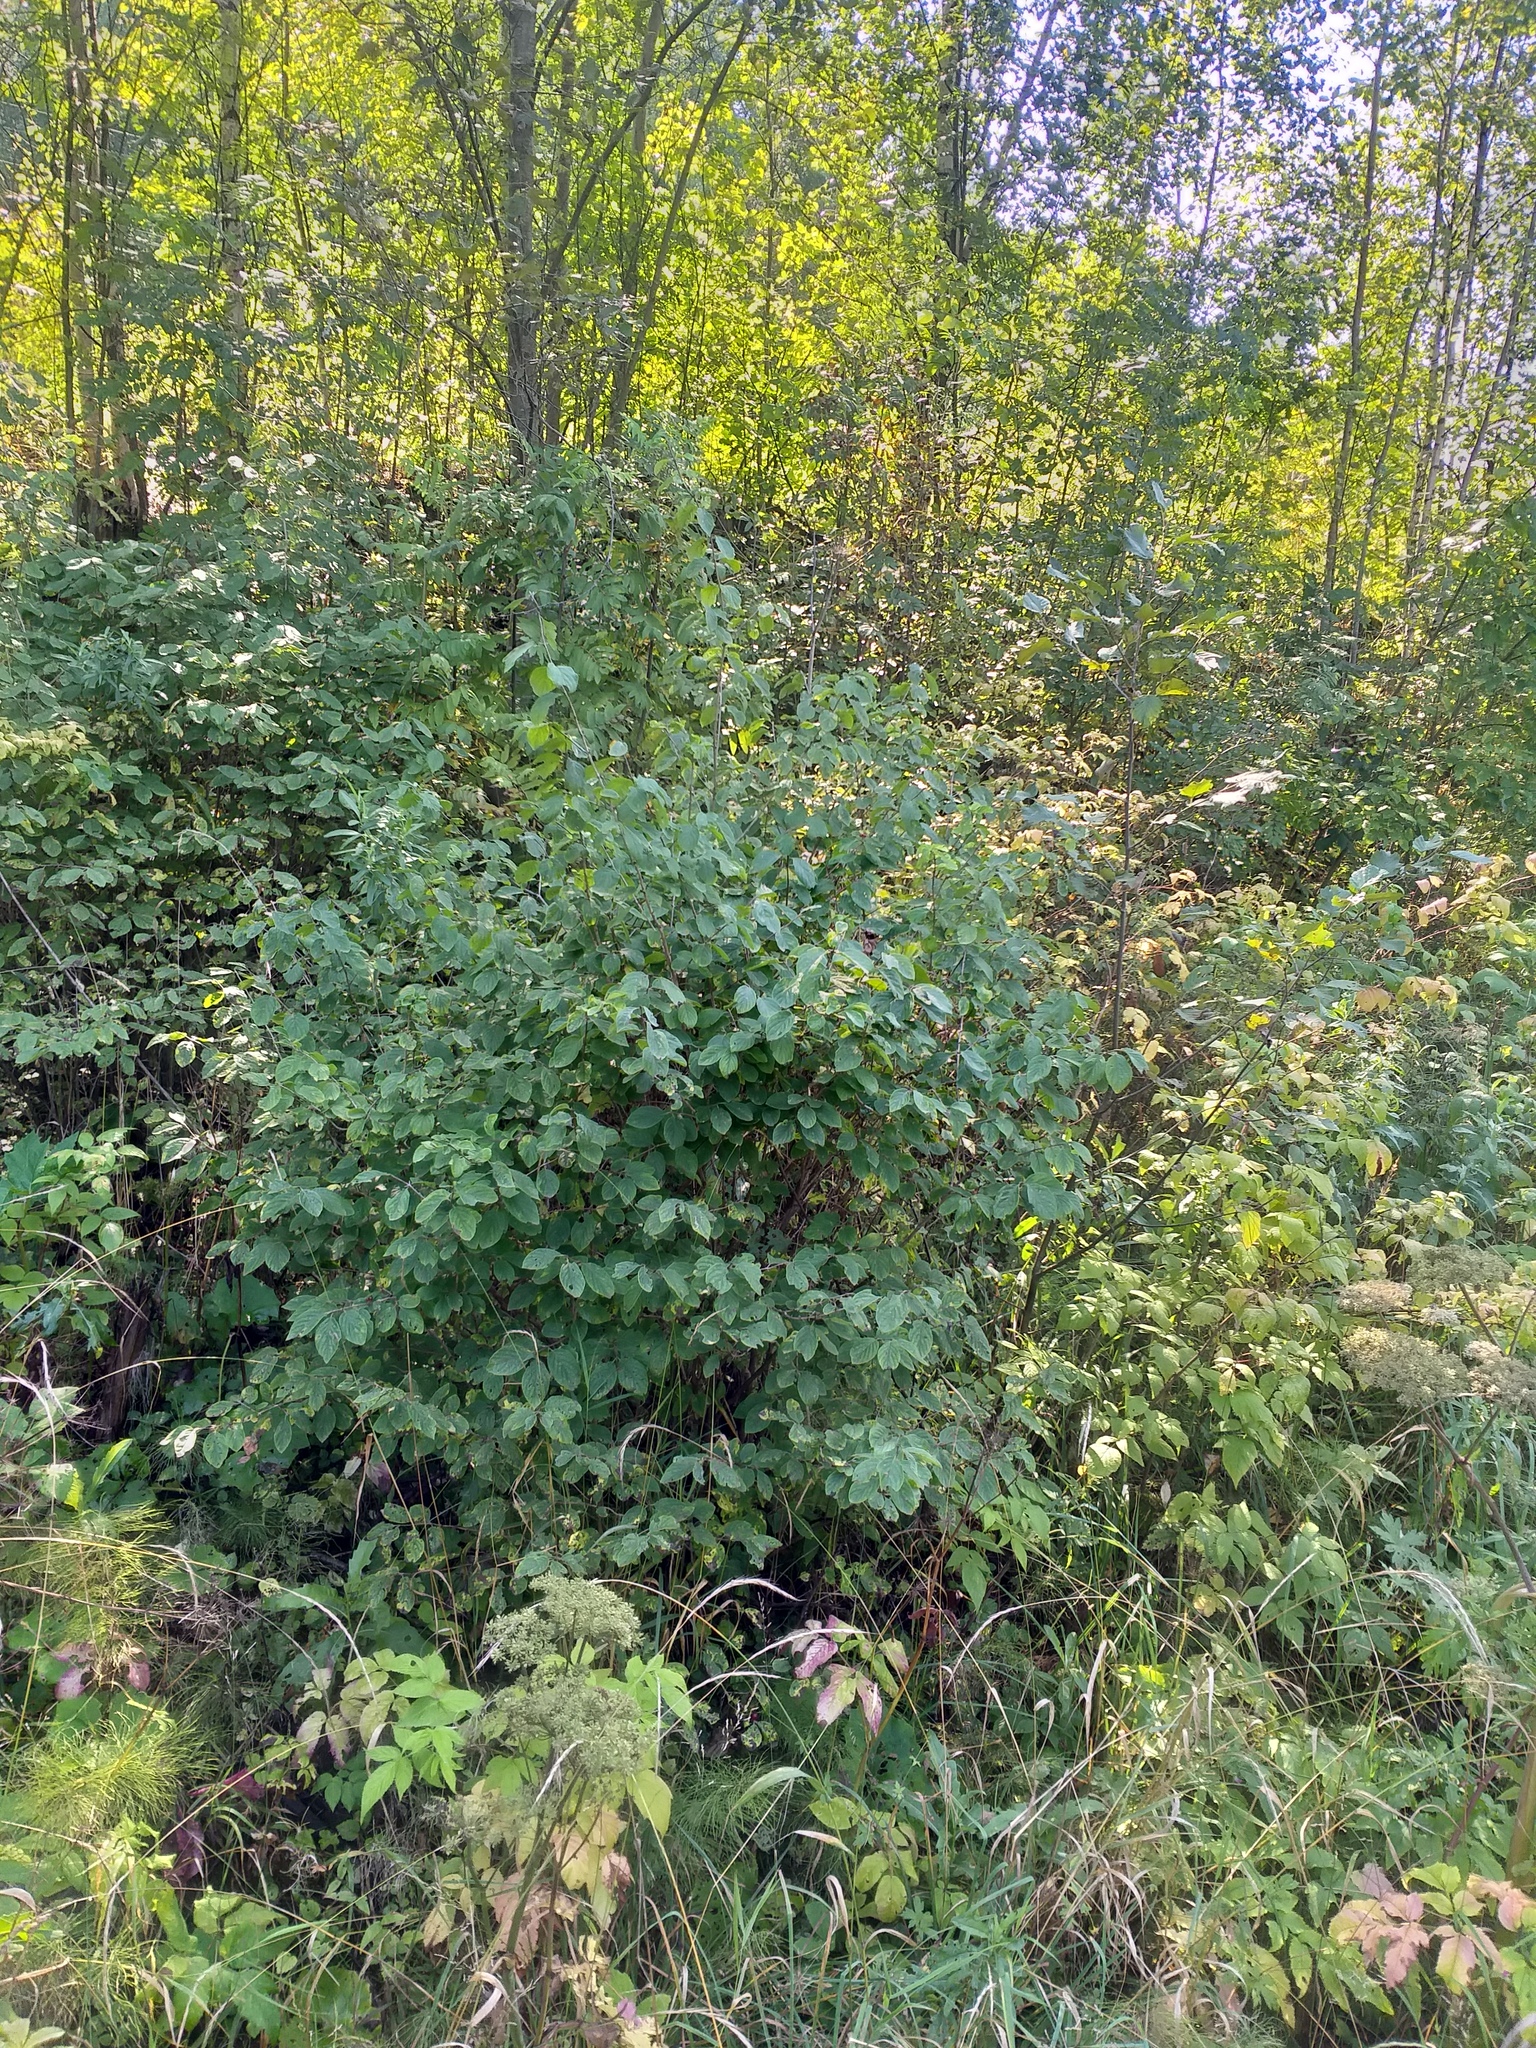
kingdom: Plantae
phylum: Tracheophyta
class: Magnoliopsida
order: Dipsacales
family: Caprifoliaceae
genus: Lonicera
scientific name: Lonicera xylosteum
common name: Fly honeysuckle
